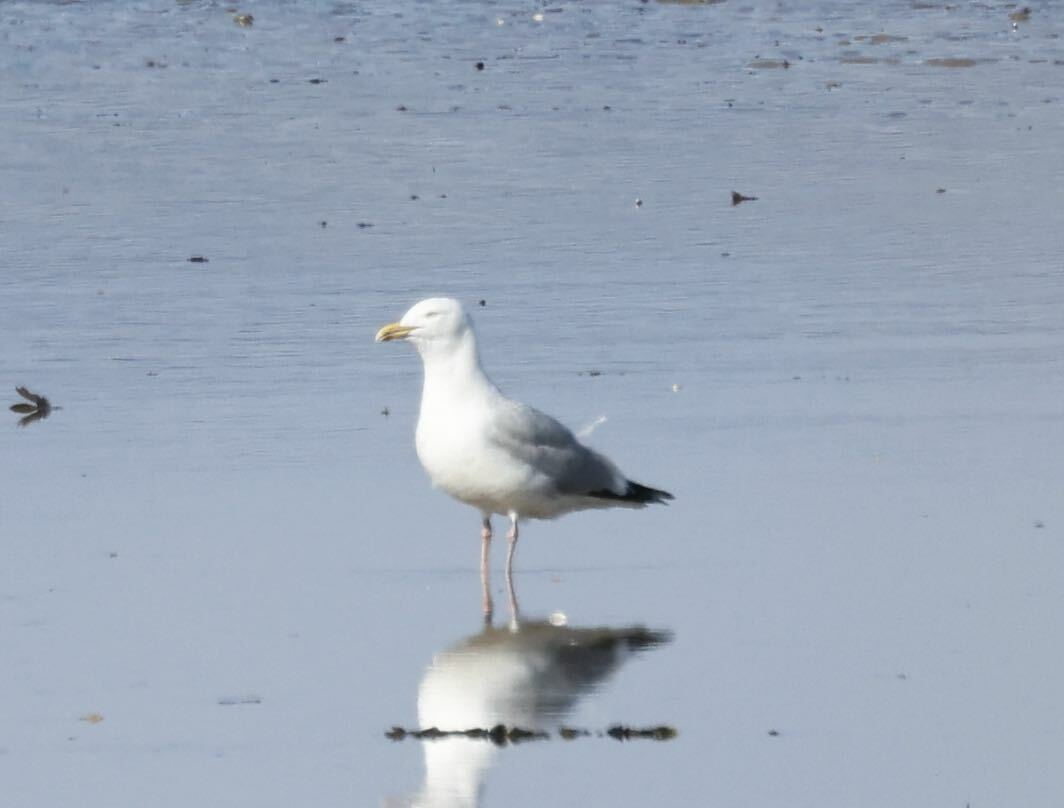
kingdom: Animalia
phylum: Chordata
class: Aves
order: Charadriiformes
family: Laridae
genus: Larus
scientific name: Larus argentatus
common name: Herring gull
